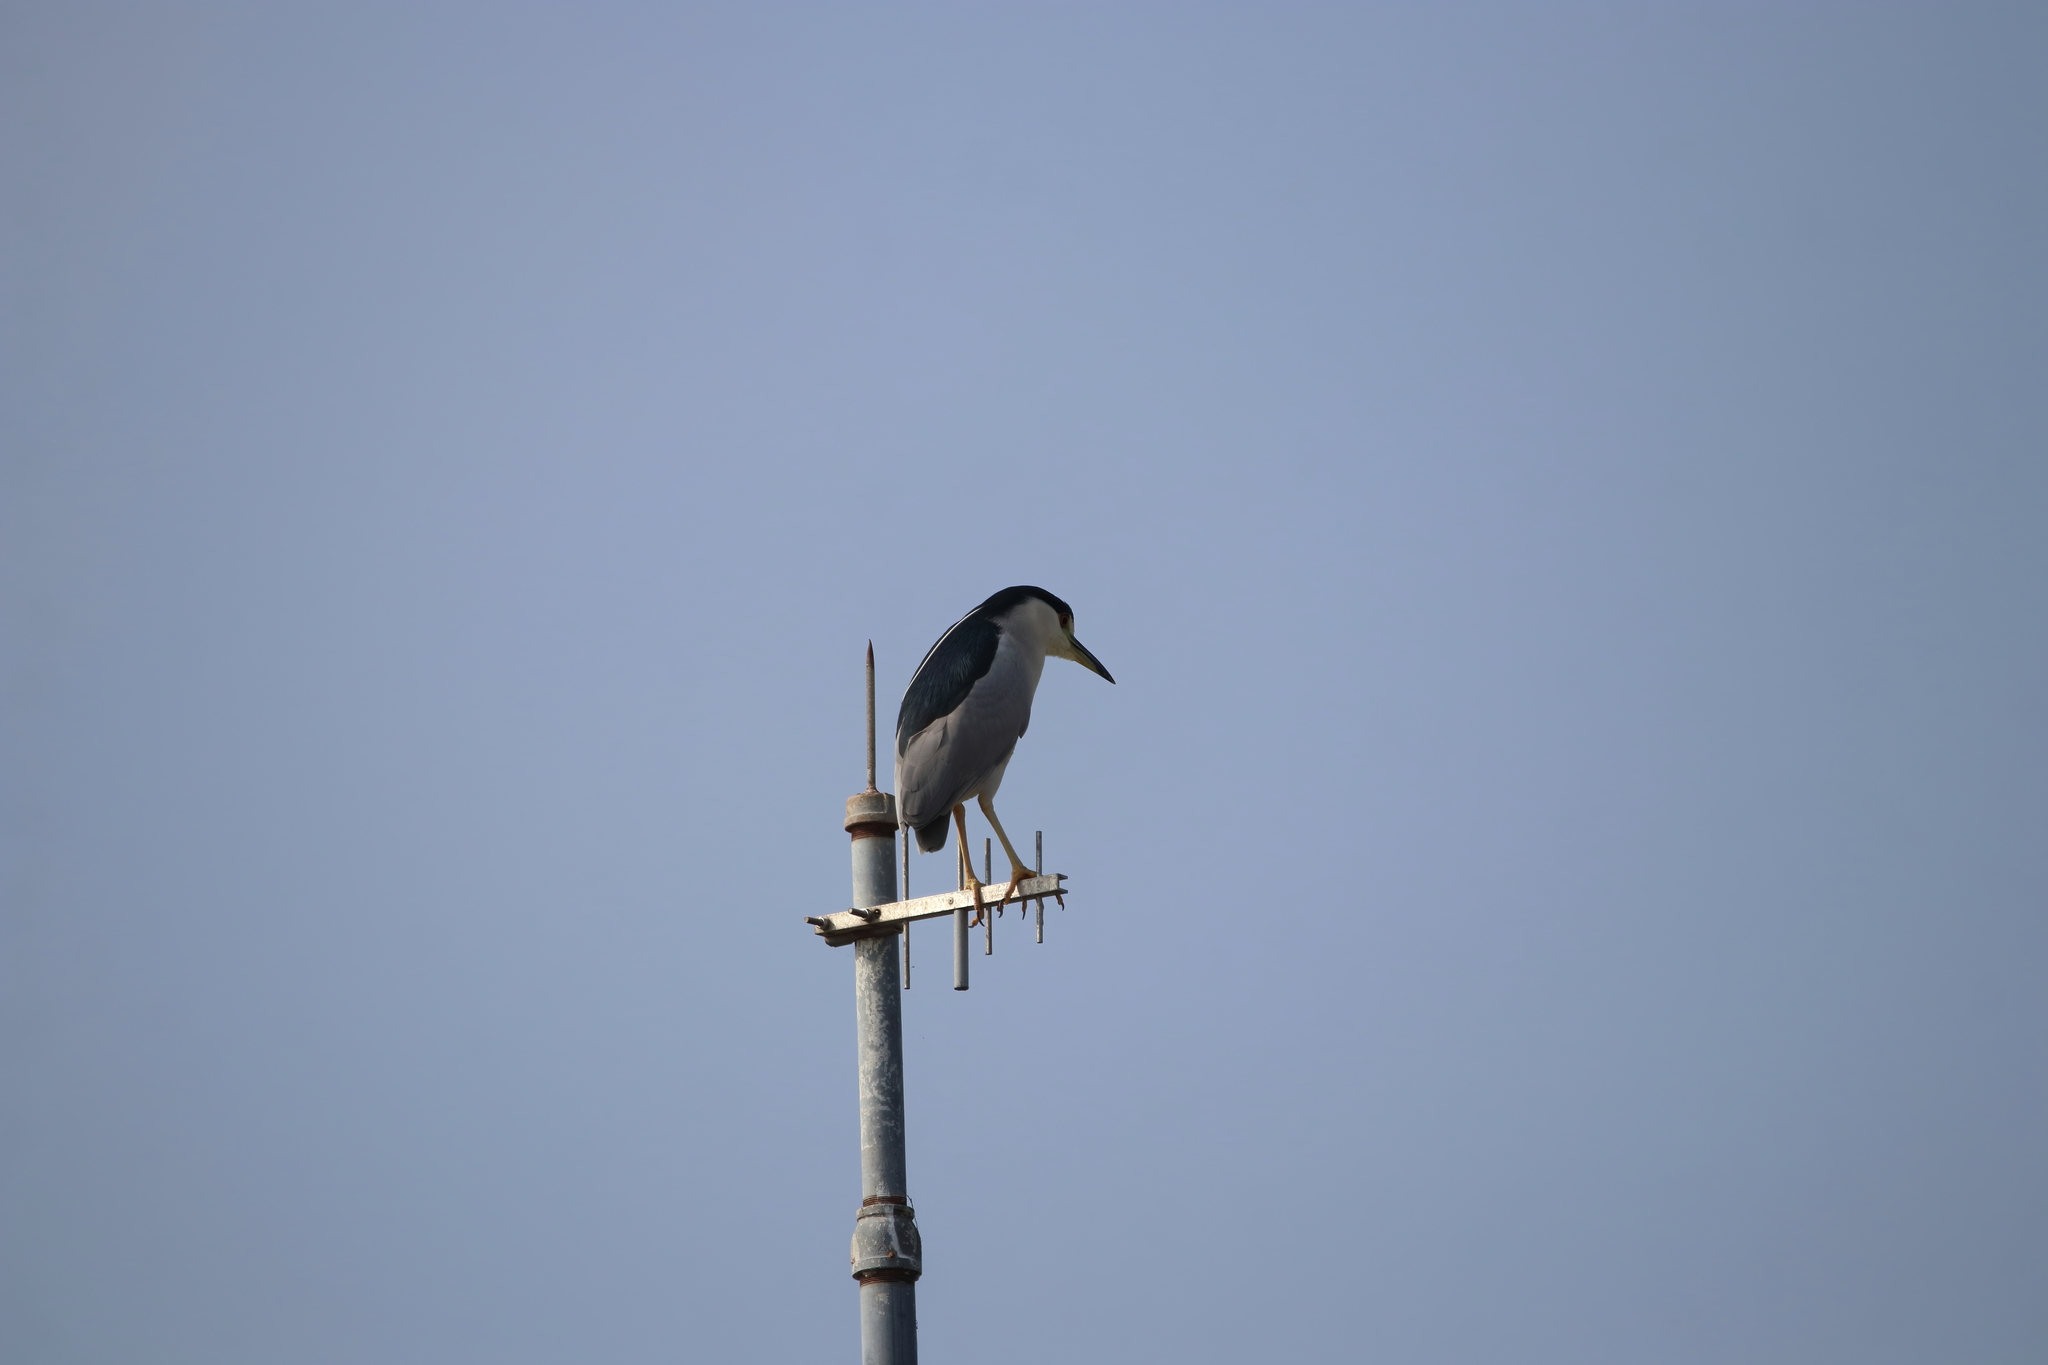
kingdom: Animalia
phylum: Chordata
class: Aves
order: Pelecaniformes
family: Ardeidae
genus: Nycticorax
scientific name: Nycticorax nycticorax
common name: Black-crowned night heron
